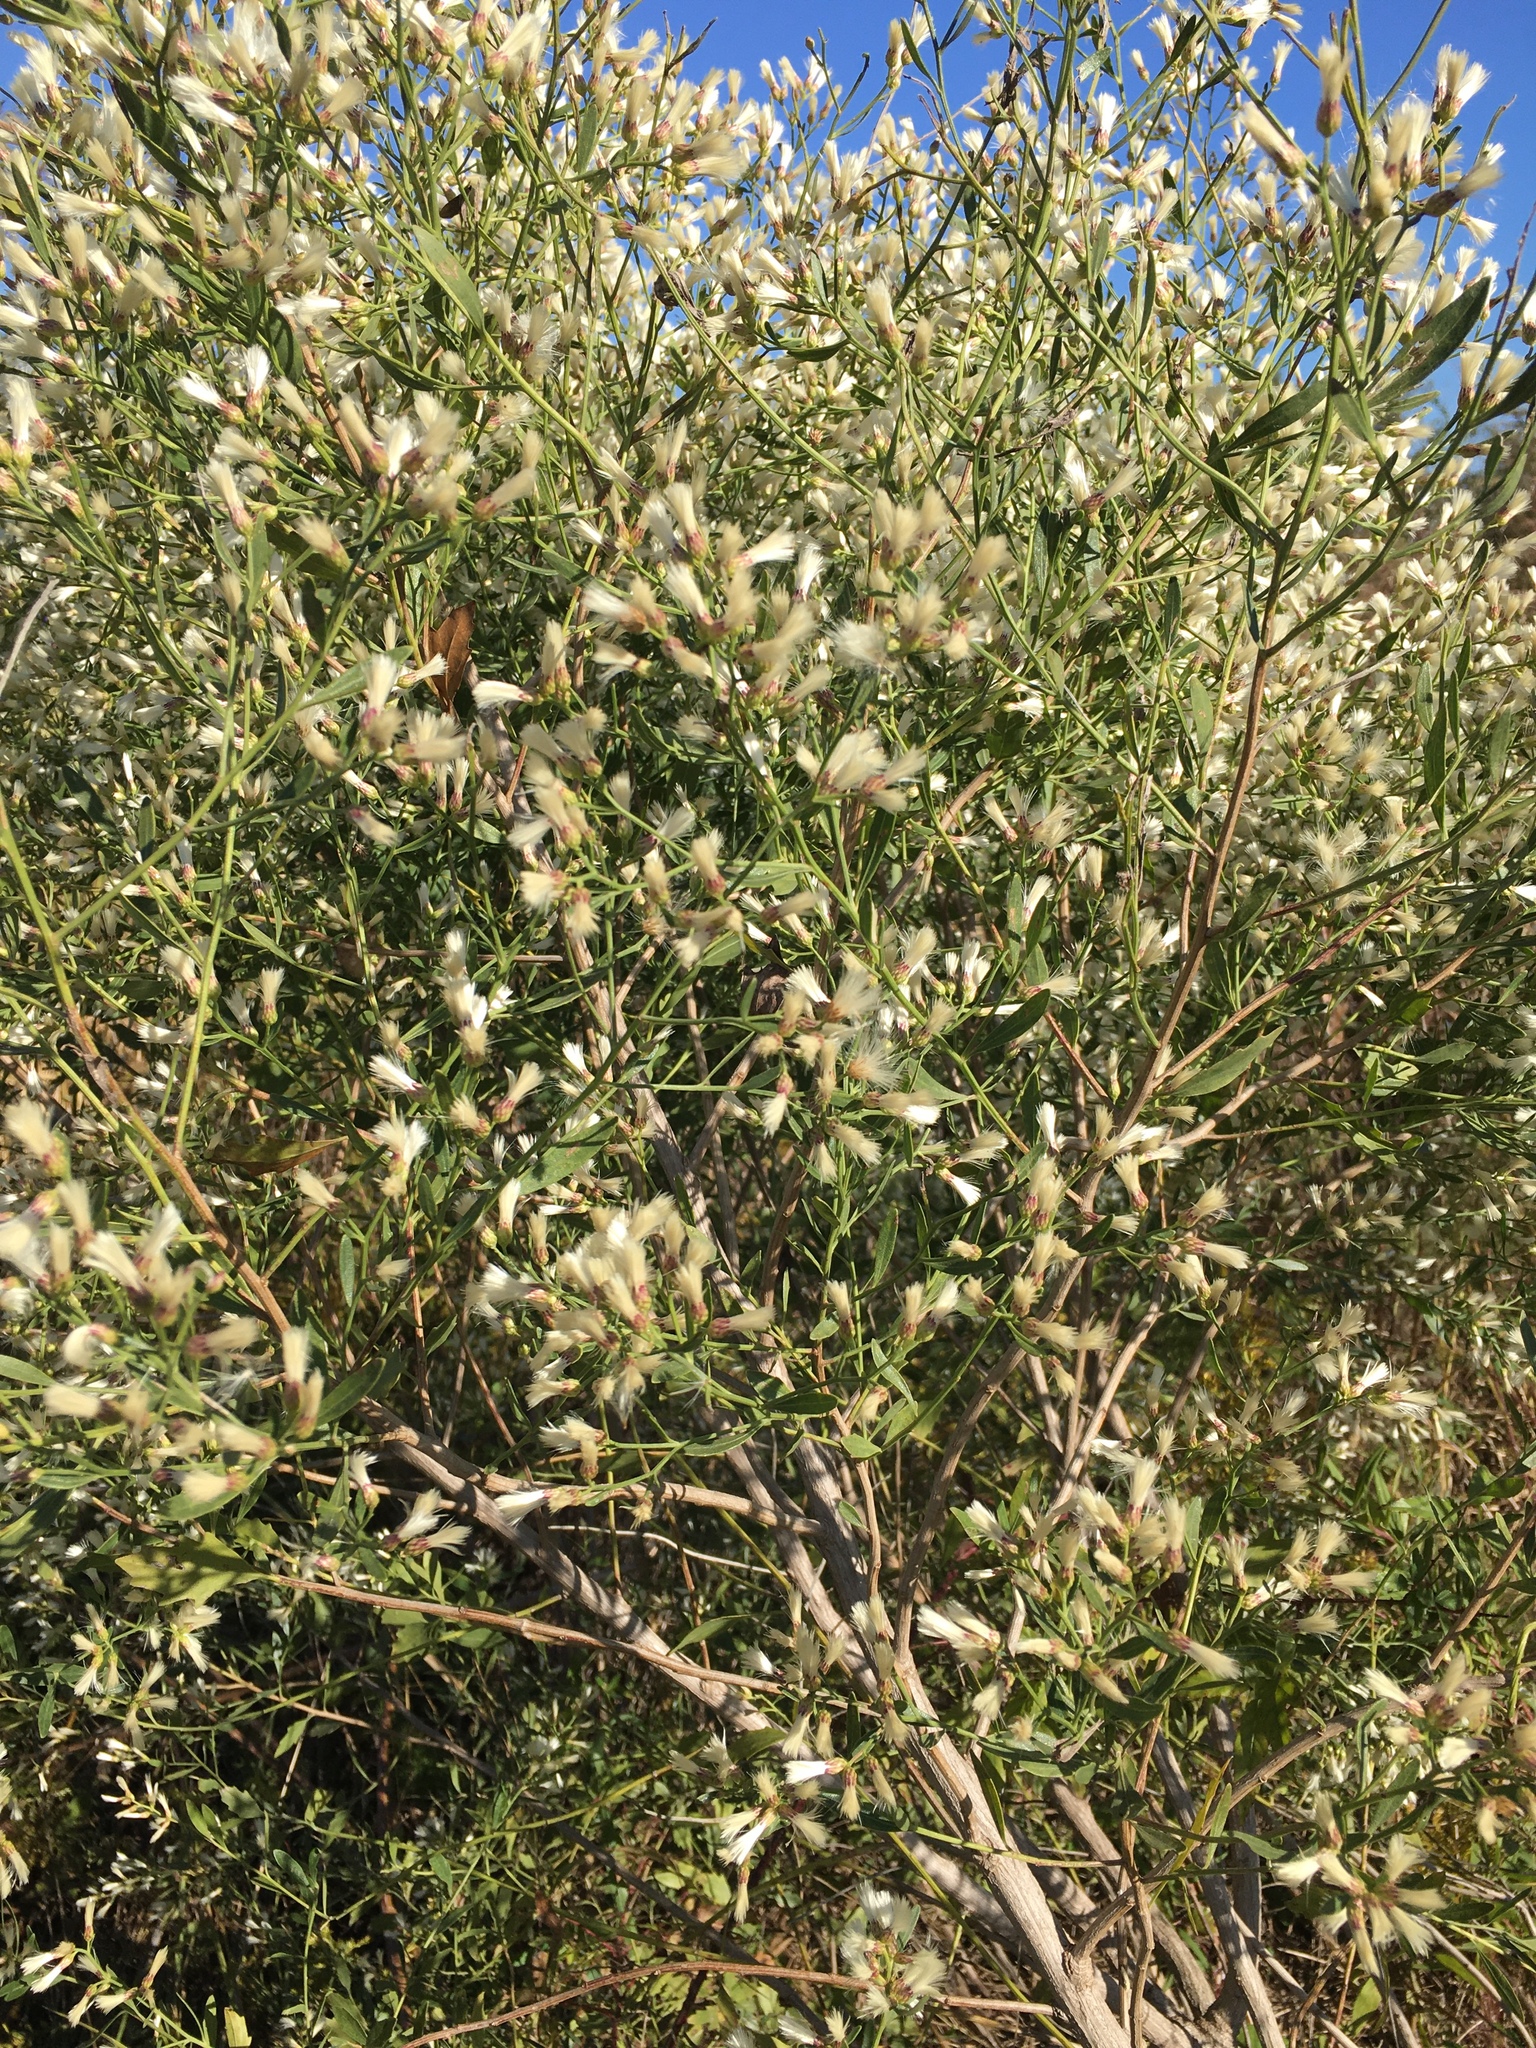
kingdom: Plantae
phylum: Tracheophyta
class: Magnoliopsida
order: Asterales
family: Asteraceae
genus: Baccharis
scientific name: Baccharis halimifolia
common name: Eastern baccharis
